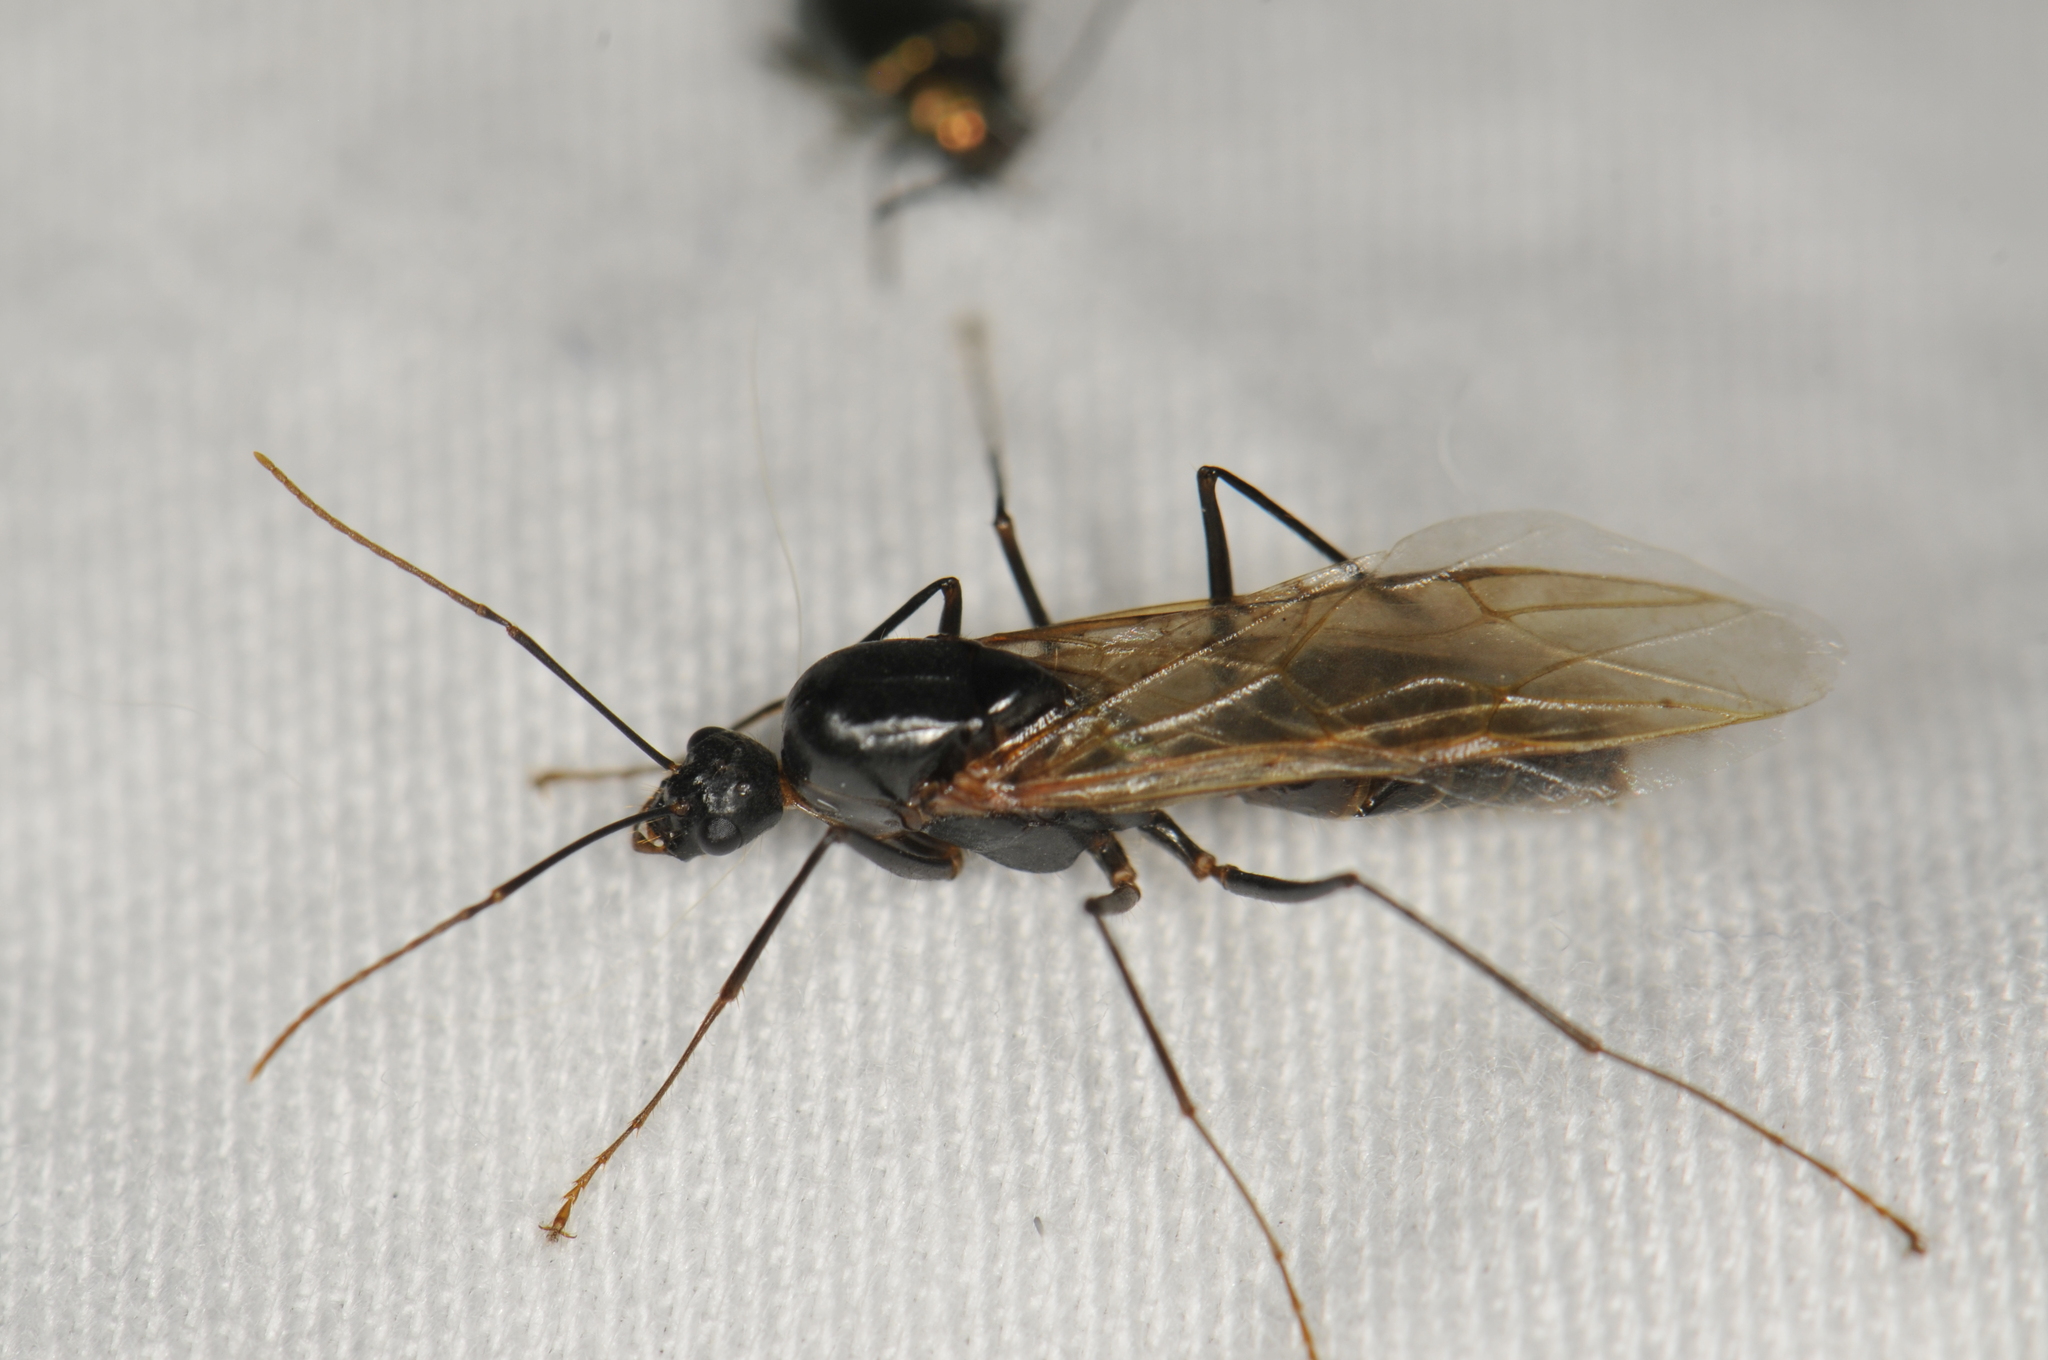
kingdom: Animalia
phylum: Arthropoda
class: Insecta
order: Hymenoptera
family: Formicidae
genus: Camponotus
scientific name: Camponotus
